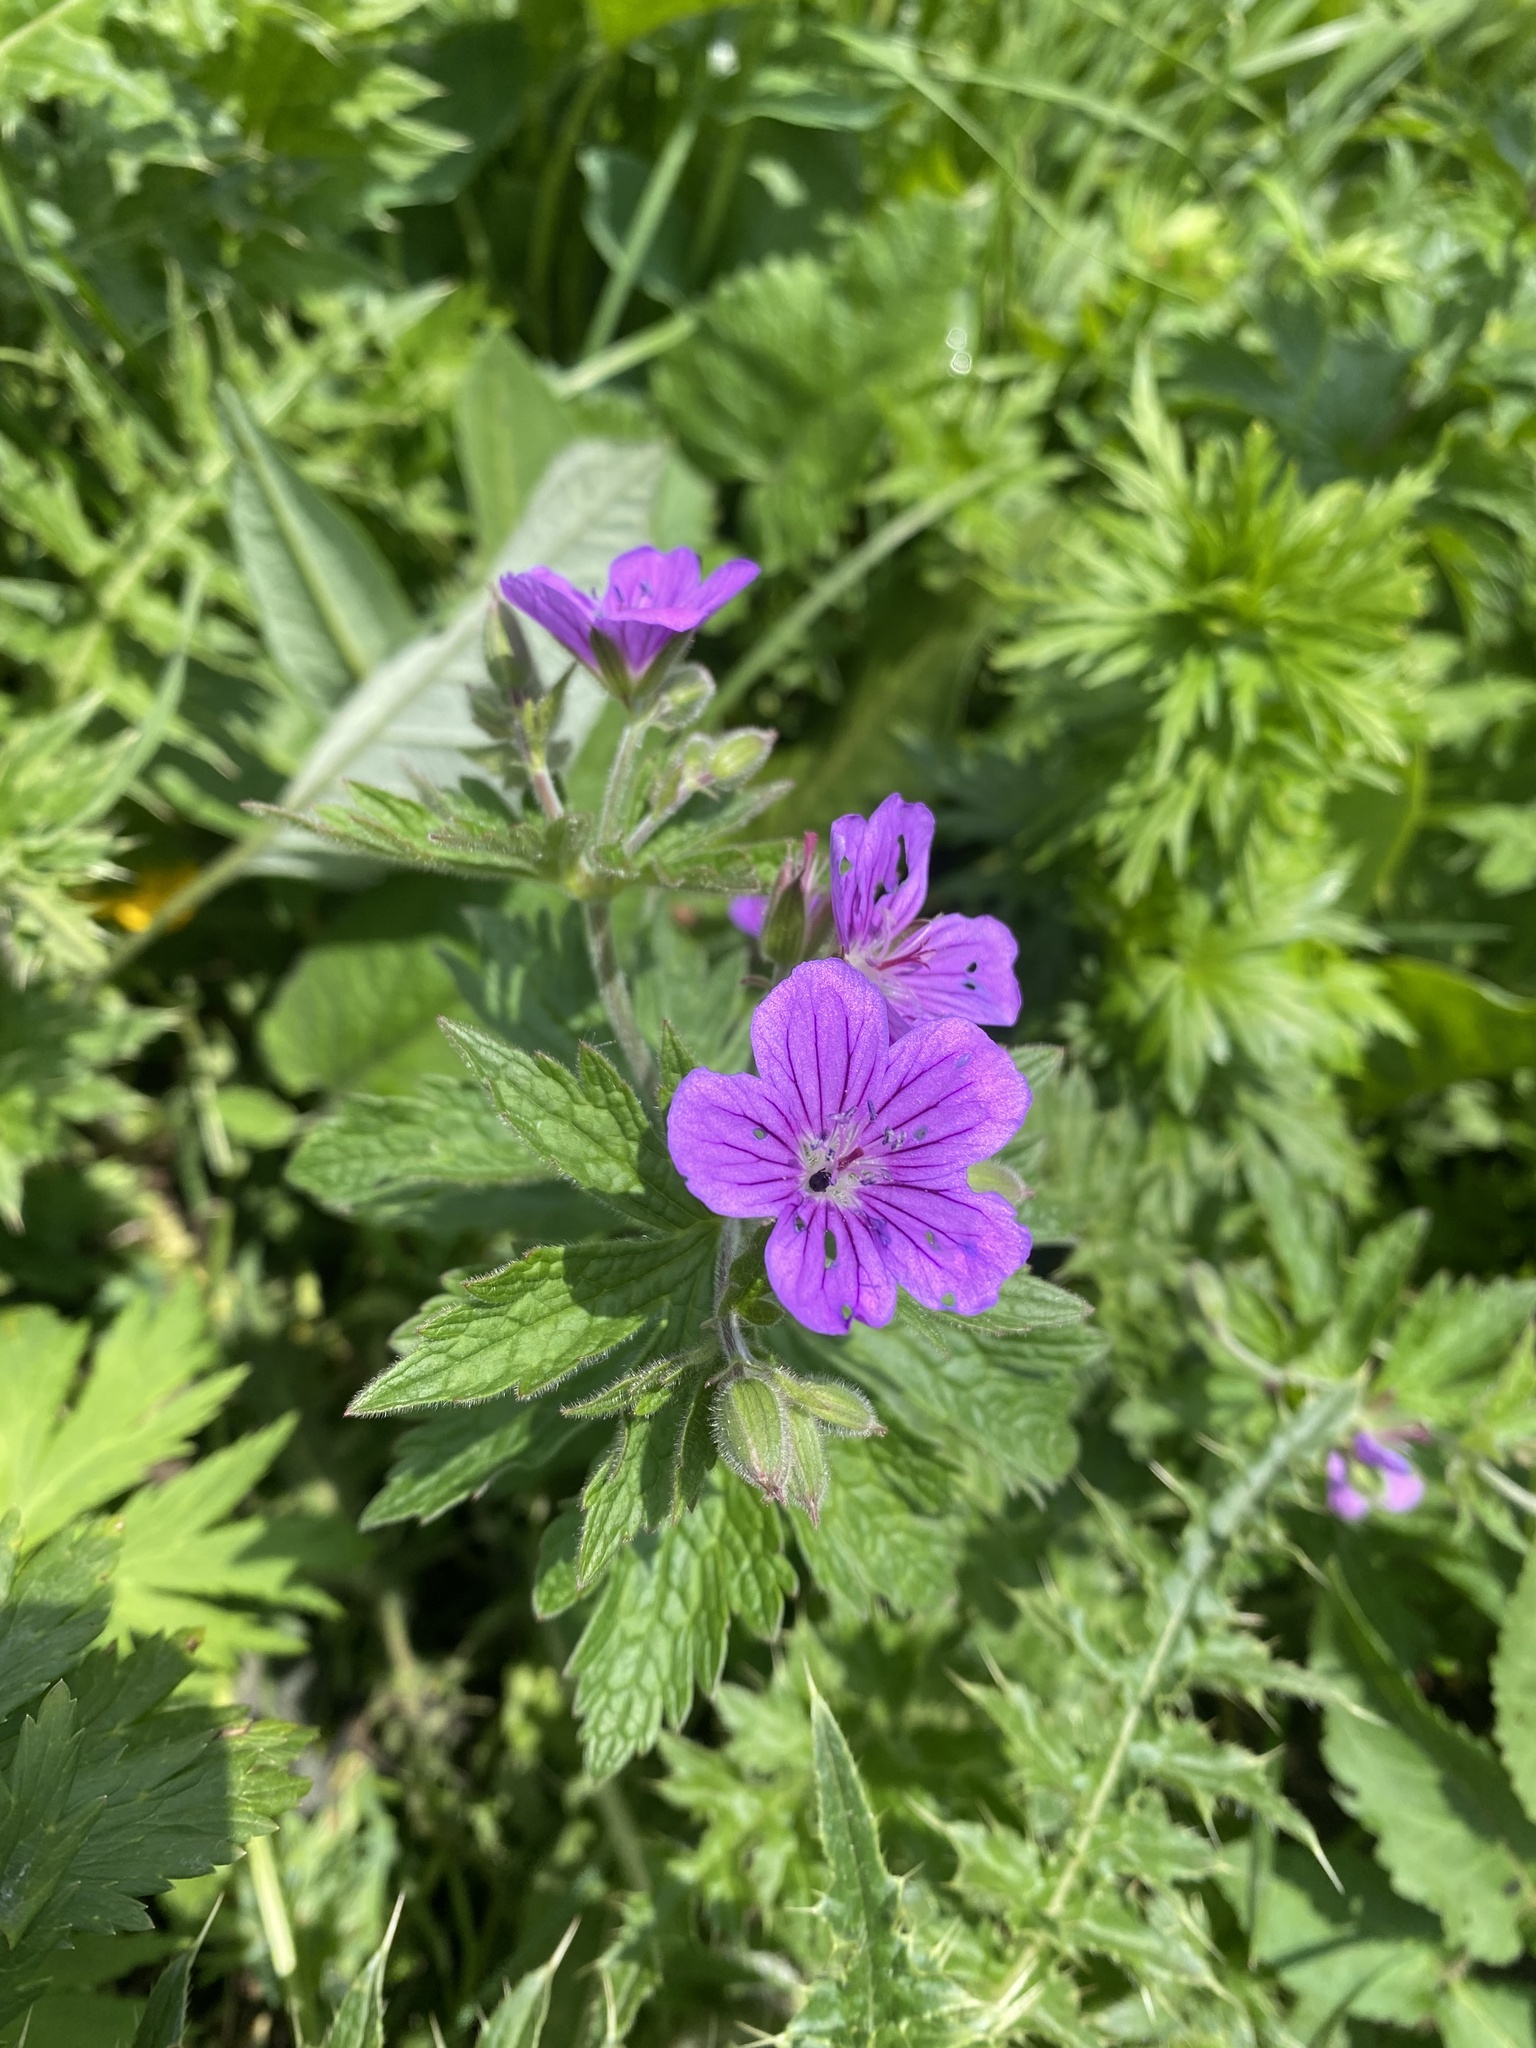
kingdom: Plantae
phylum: Tracheophyta
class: Magnoliopsida
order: Geraniales
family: Geraniaceae
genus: Geranium
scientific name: Geranium sylvaticum
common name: Wood crane's-bill
